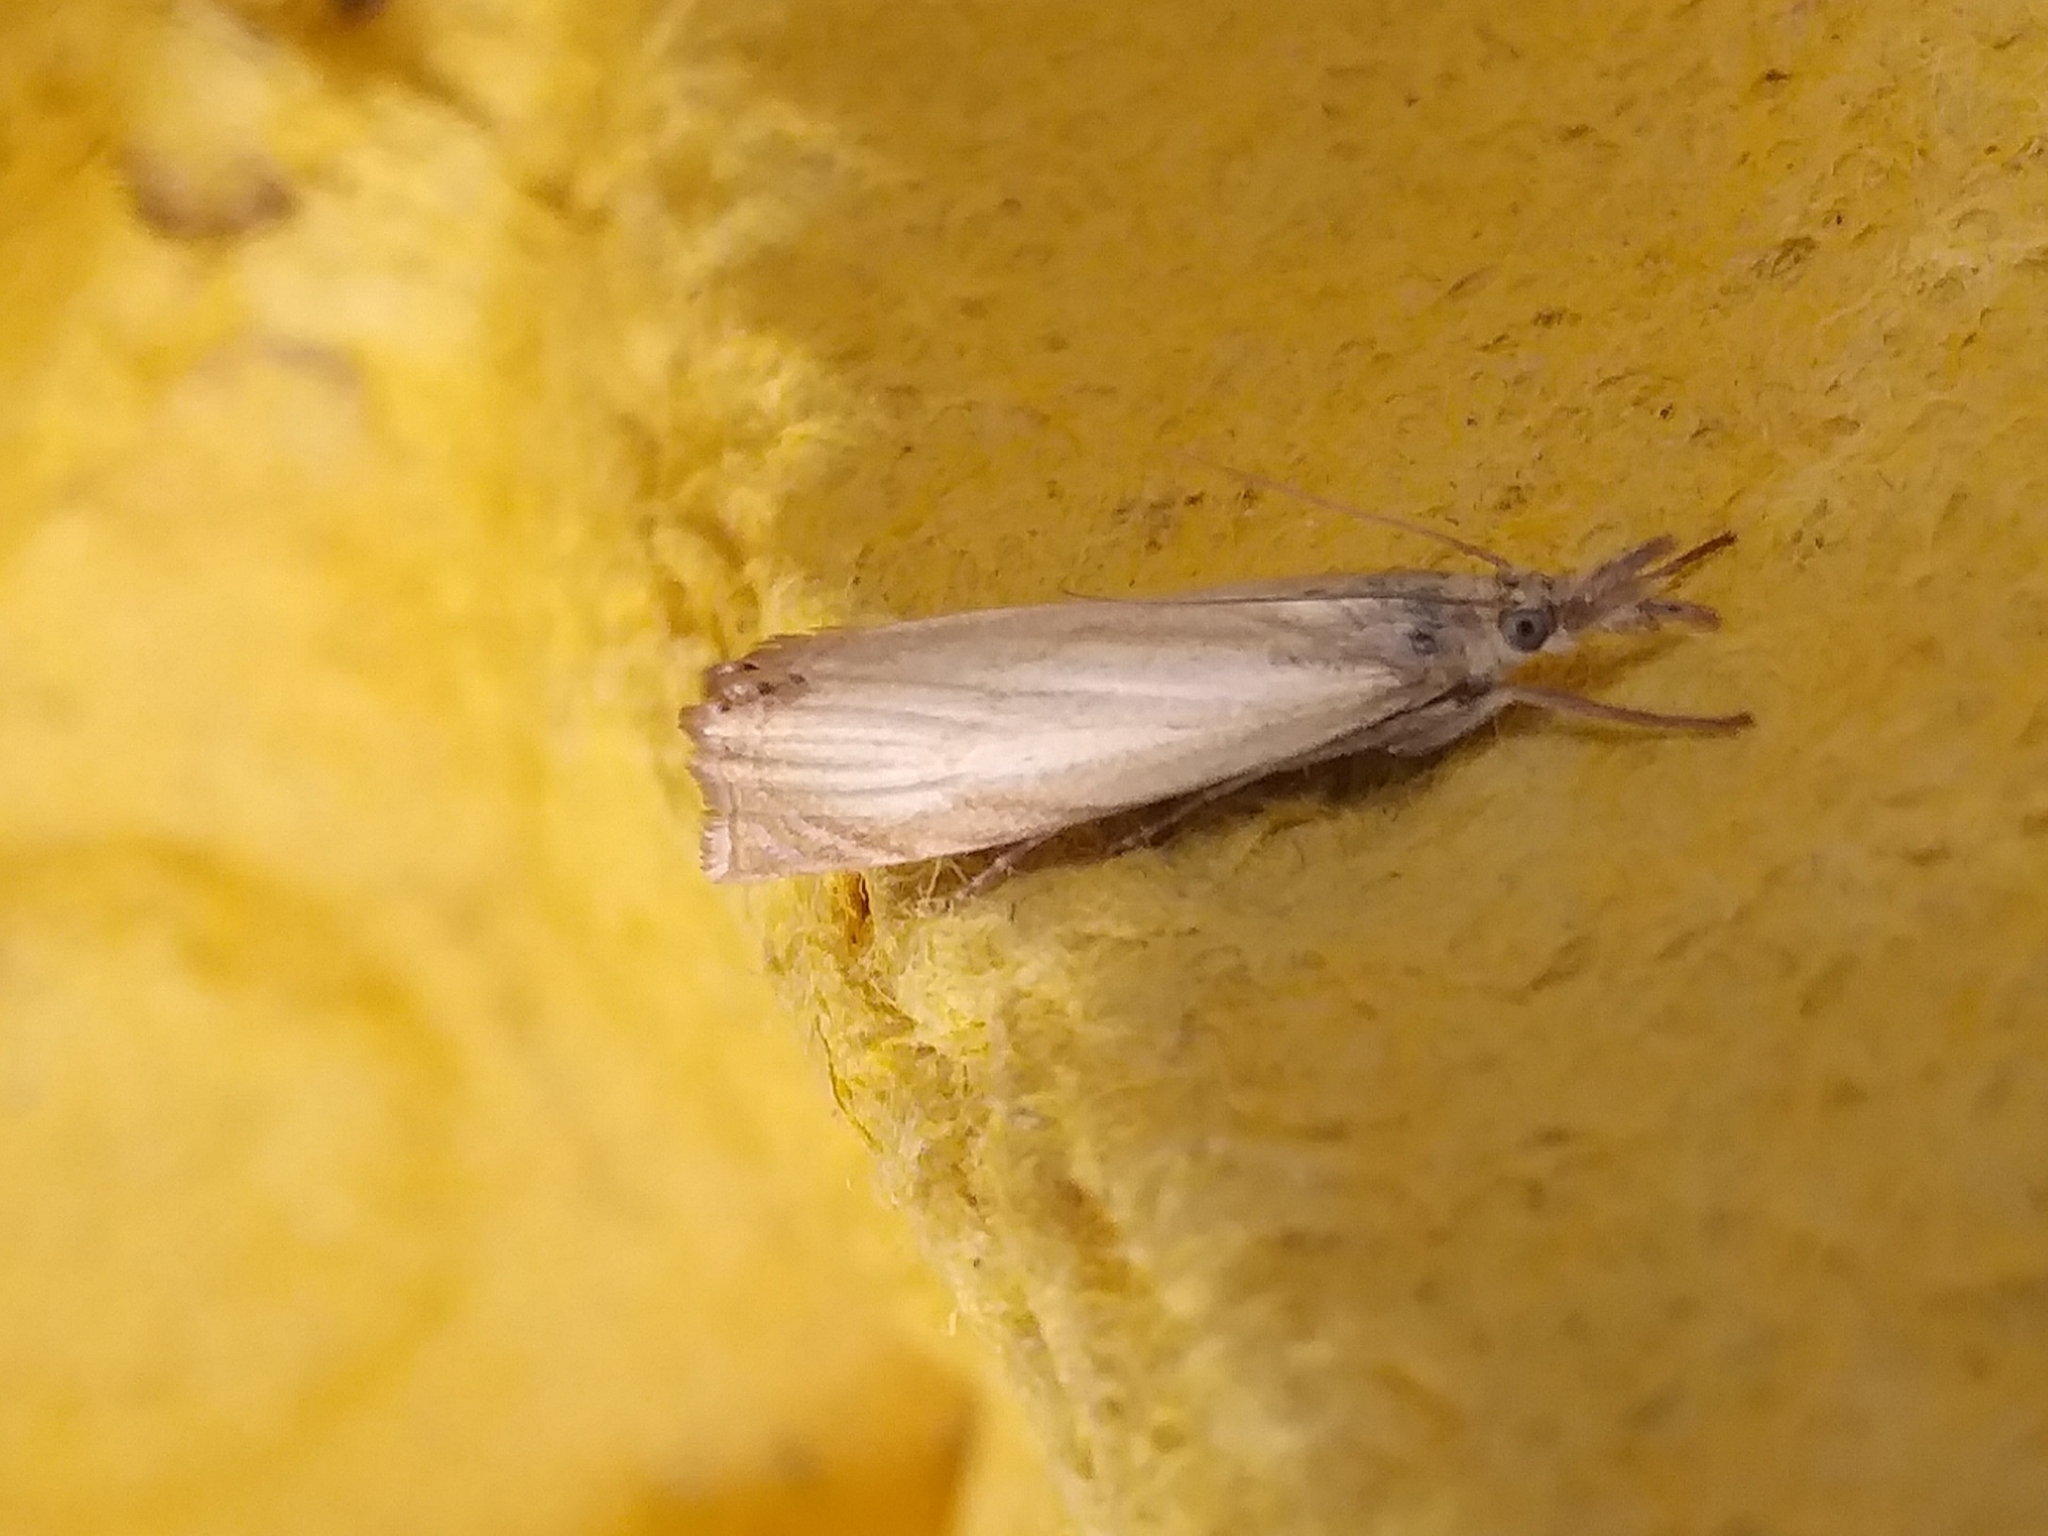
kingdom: Animalia
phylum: Arthropoda
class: Insecta
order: Lepidoptera
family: Crambidae
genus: Chrysoteuchia
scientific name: Chrysoteuchia culmella
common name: Garden grass-veneer
